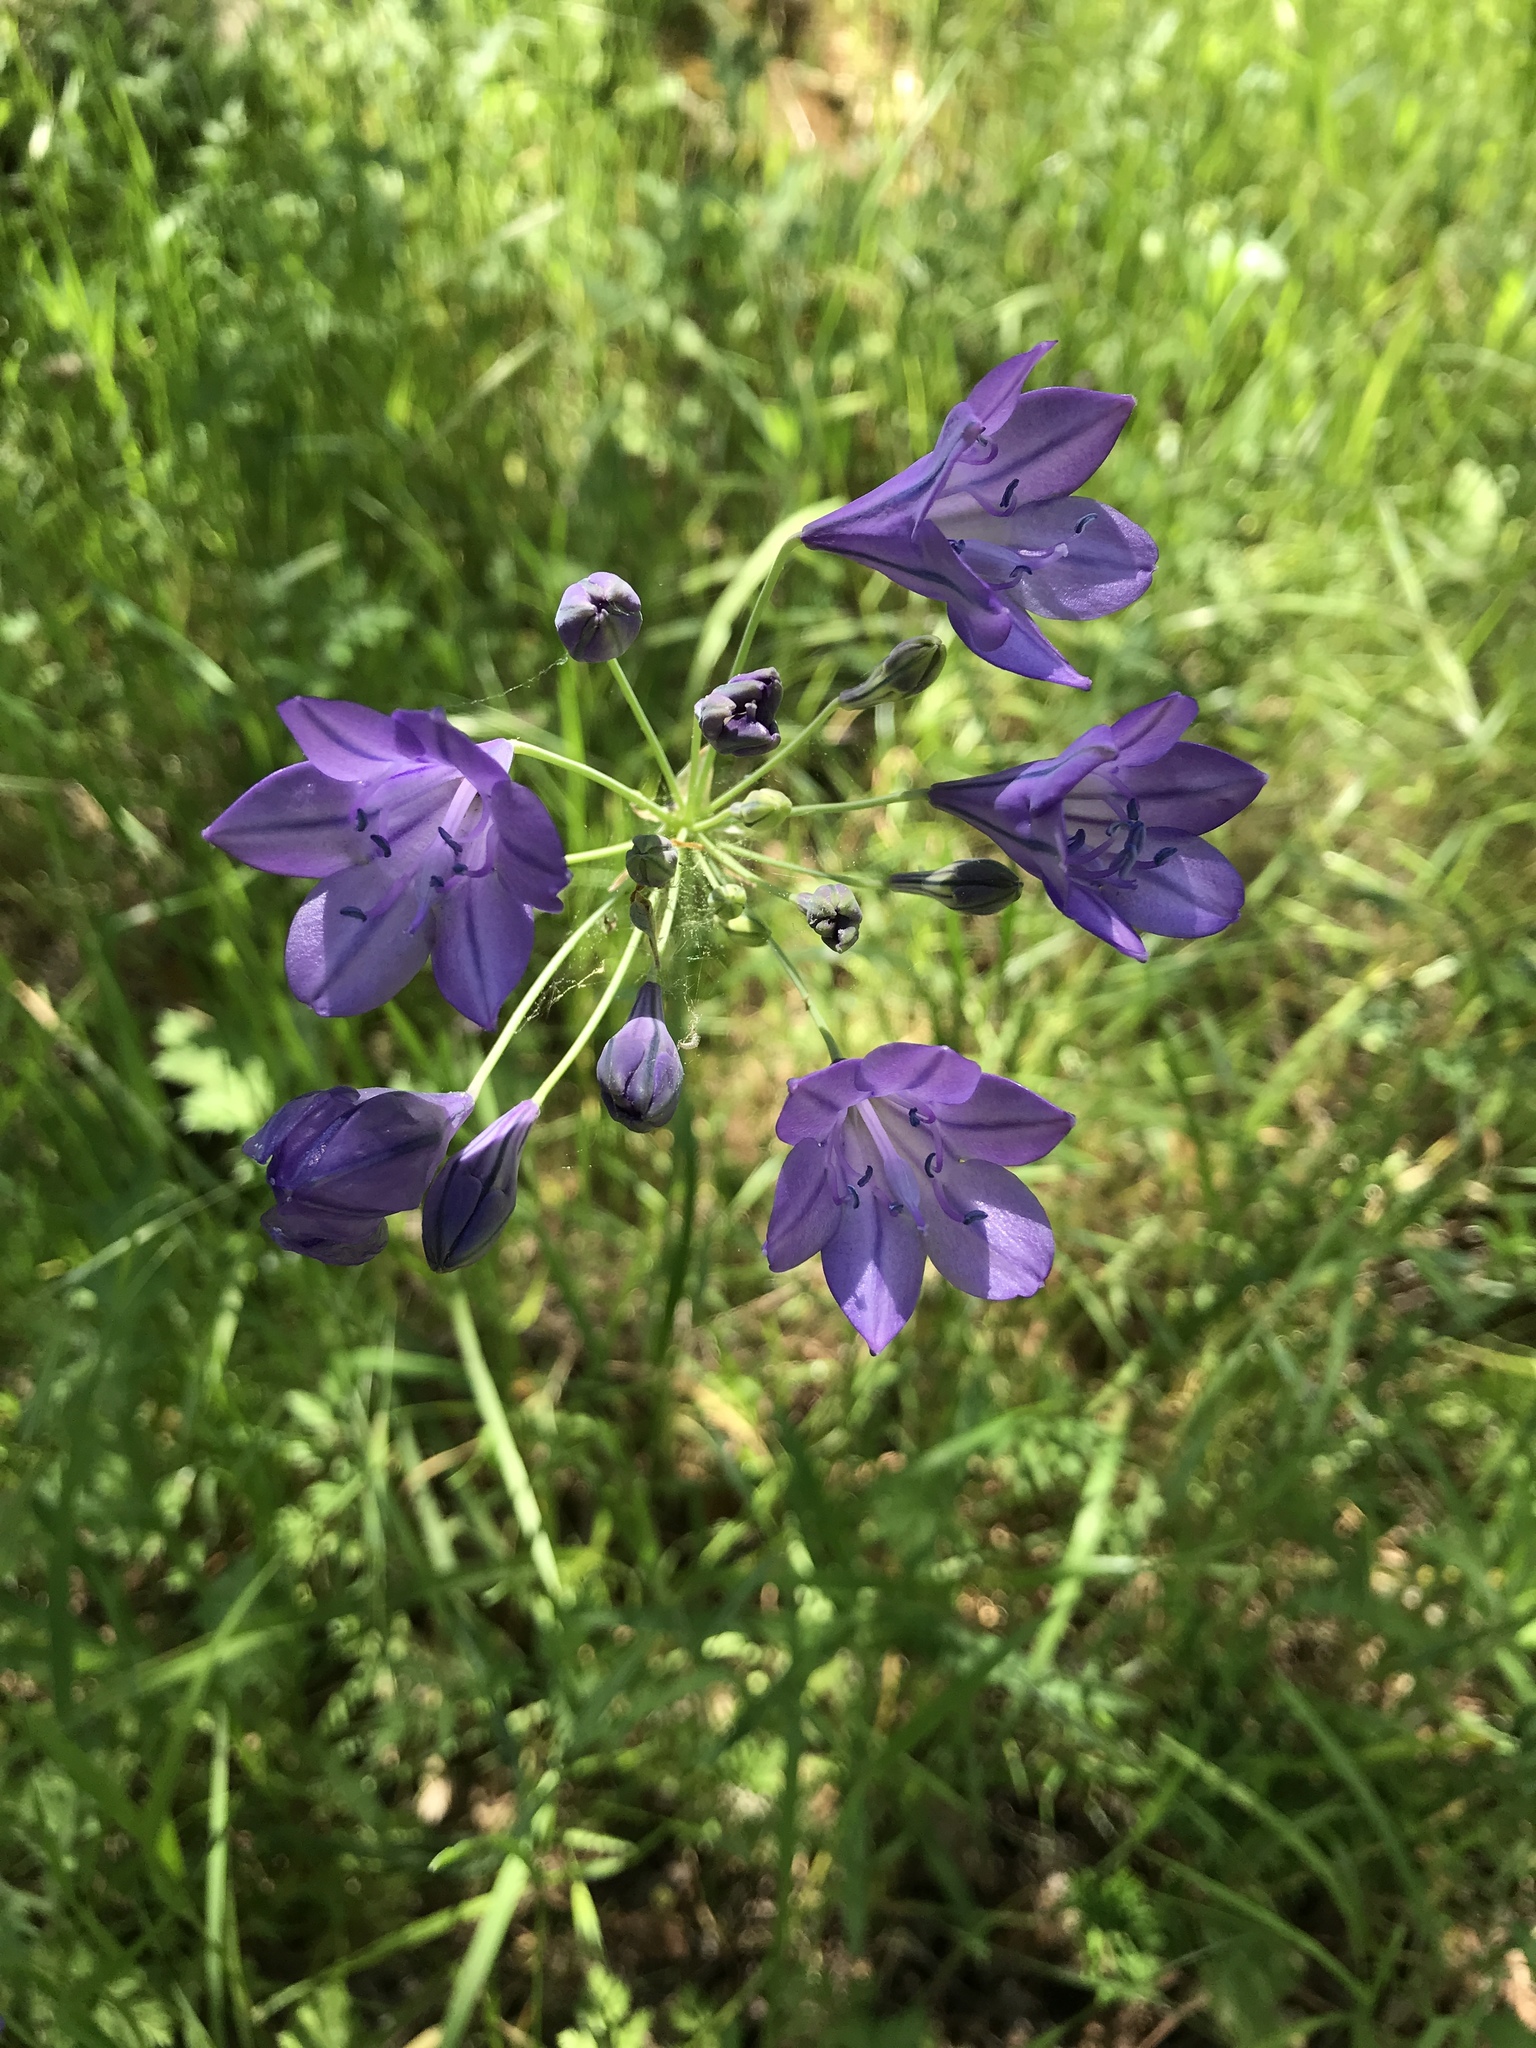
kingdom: Plantae
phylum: Tracheophyta
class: Liliopsida
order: Asparagales
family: Asparagaceae
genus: Triteleia
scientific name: Triteleia laxa
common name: Triplet-lily
